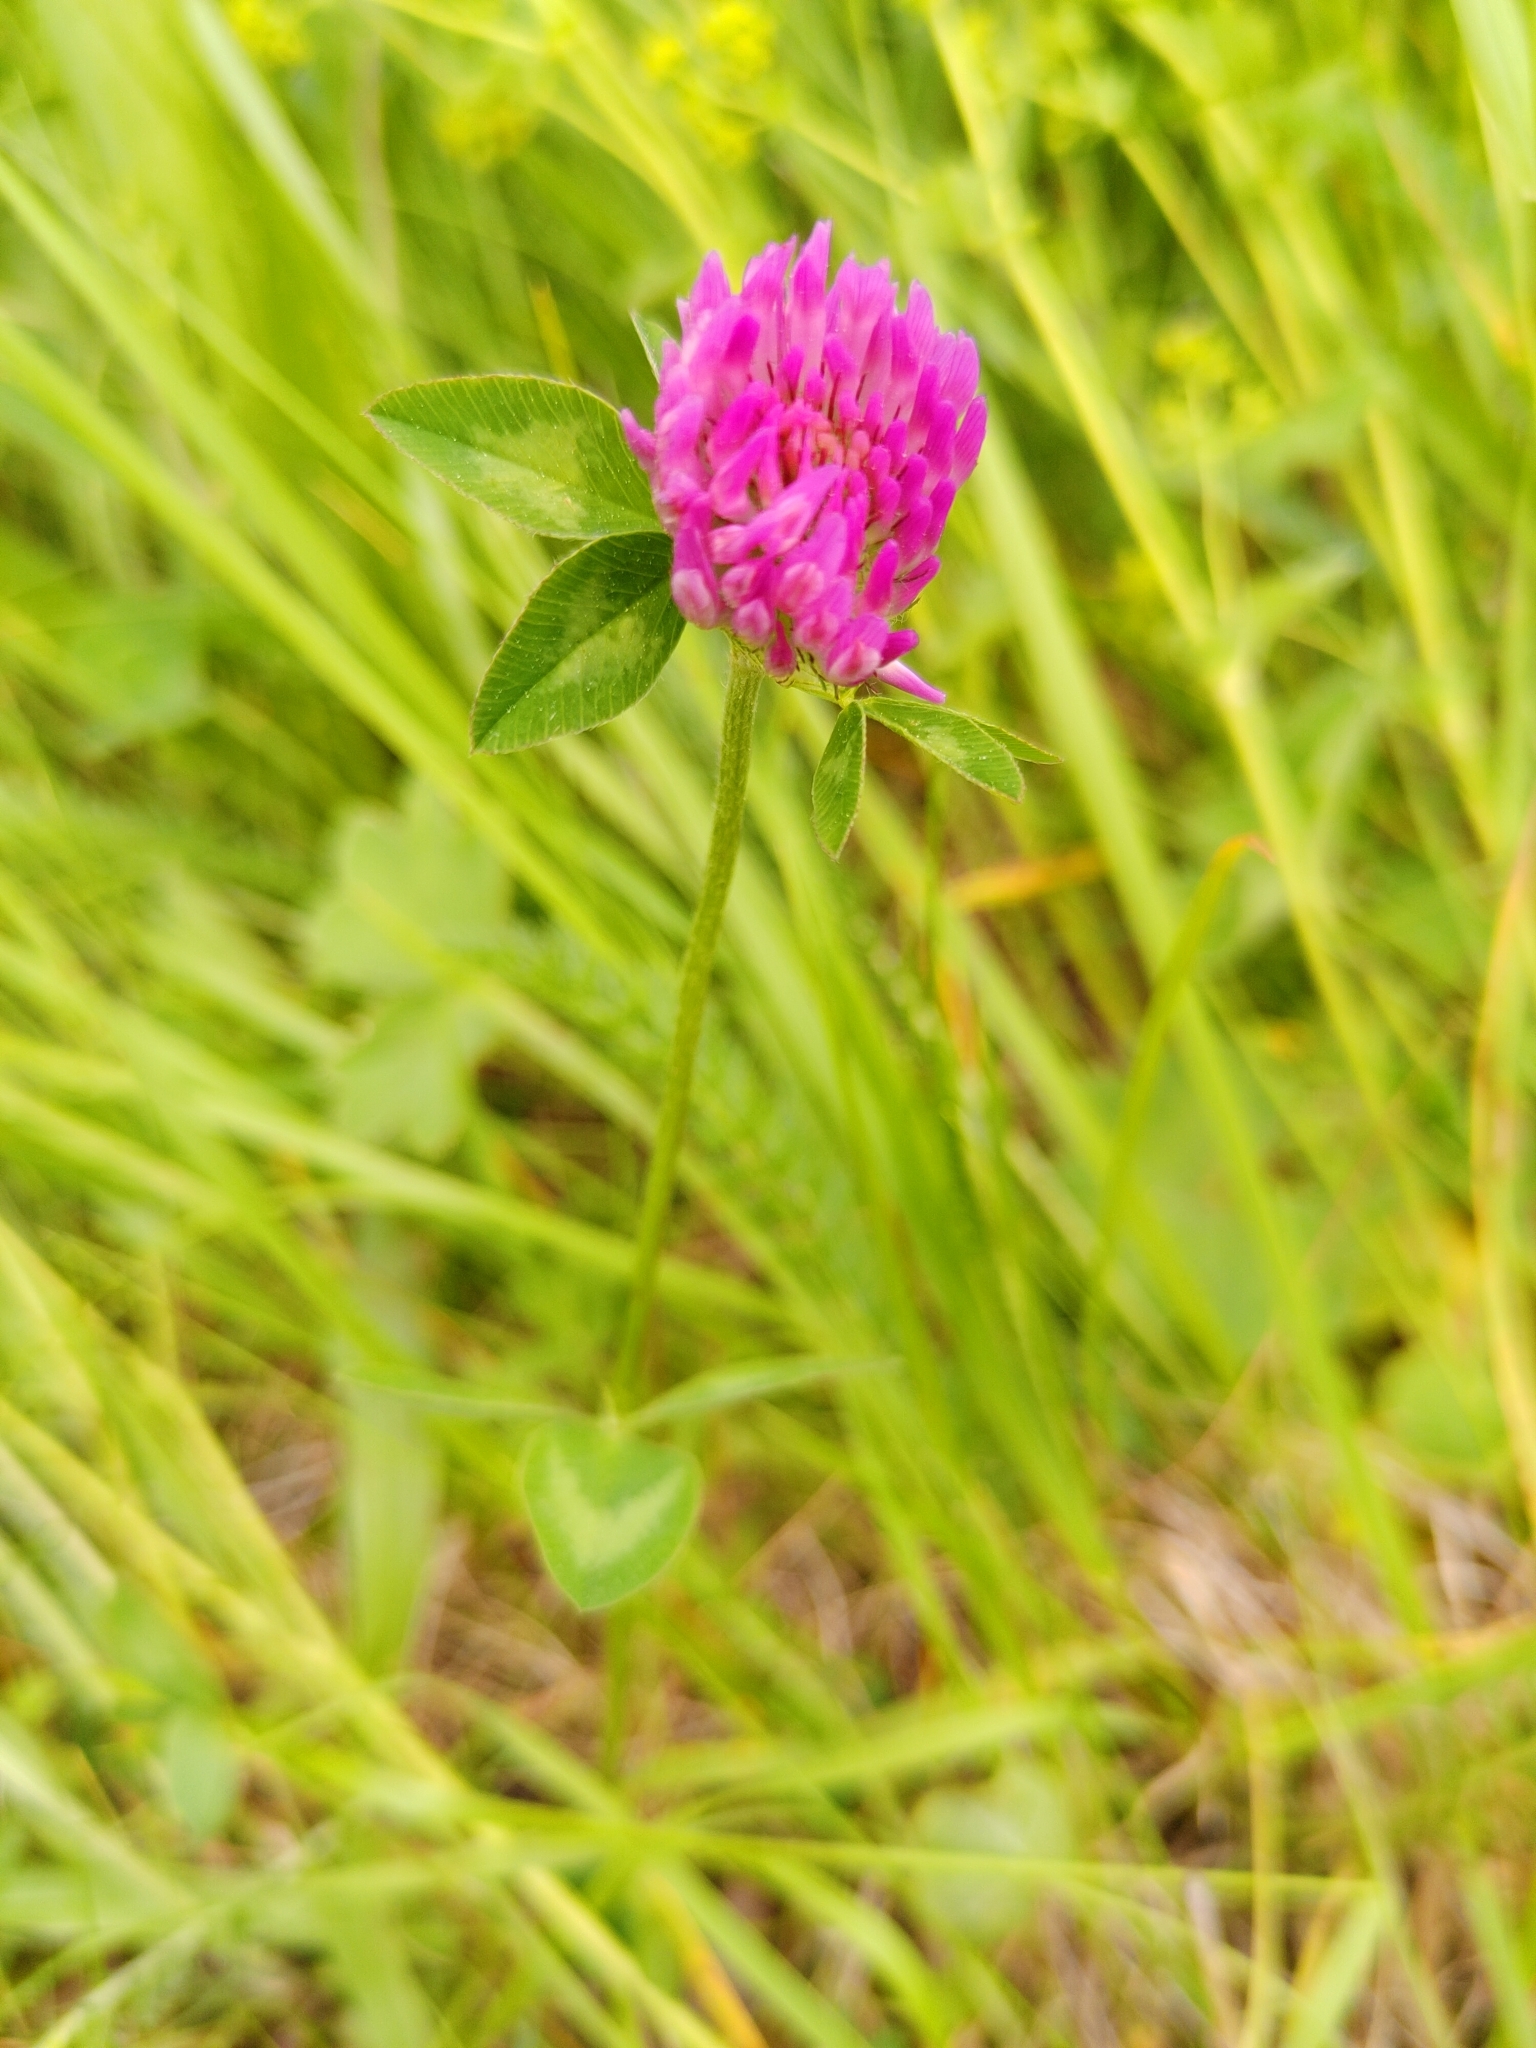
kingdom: Plantae
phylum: Tracheophyta
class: Magnoliopsida
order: Fabales
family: Fabaceae
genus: Trifolium
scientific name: Trifolium pratense
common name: Red clover
